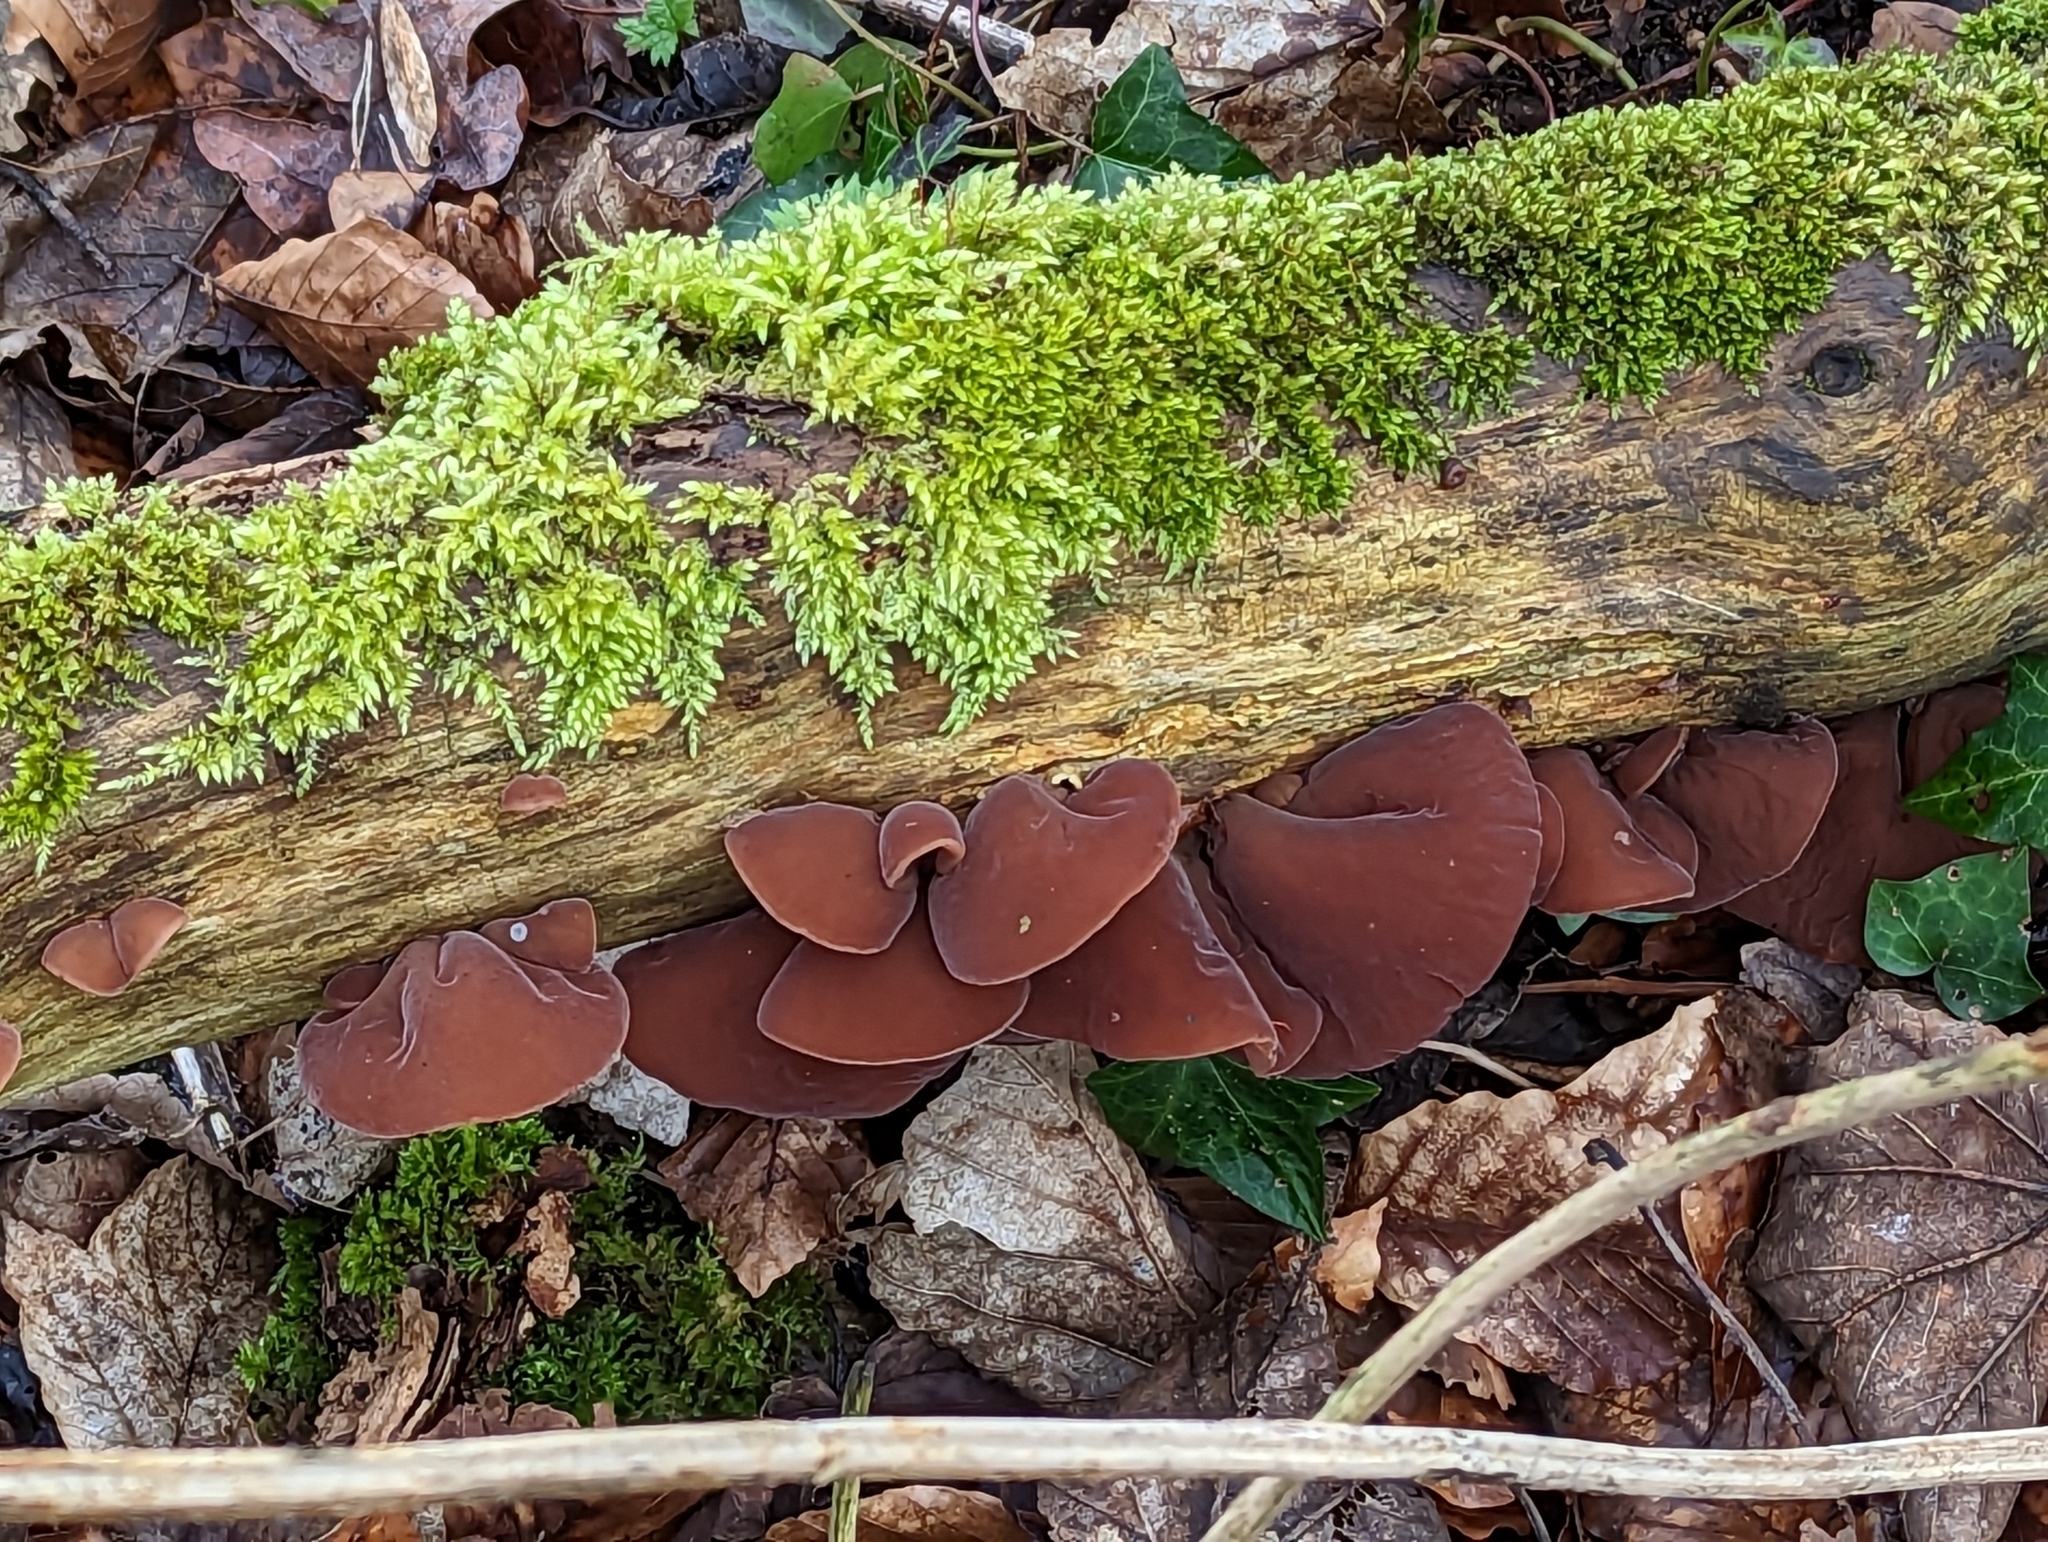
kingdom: Fungi
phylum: Basidiomycota
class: Agaricomycetes
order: Auriculariales
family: Auriculariaceae
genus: Auricularia
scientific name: Auricularia auricula-judae
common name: Jelly ear
